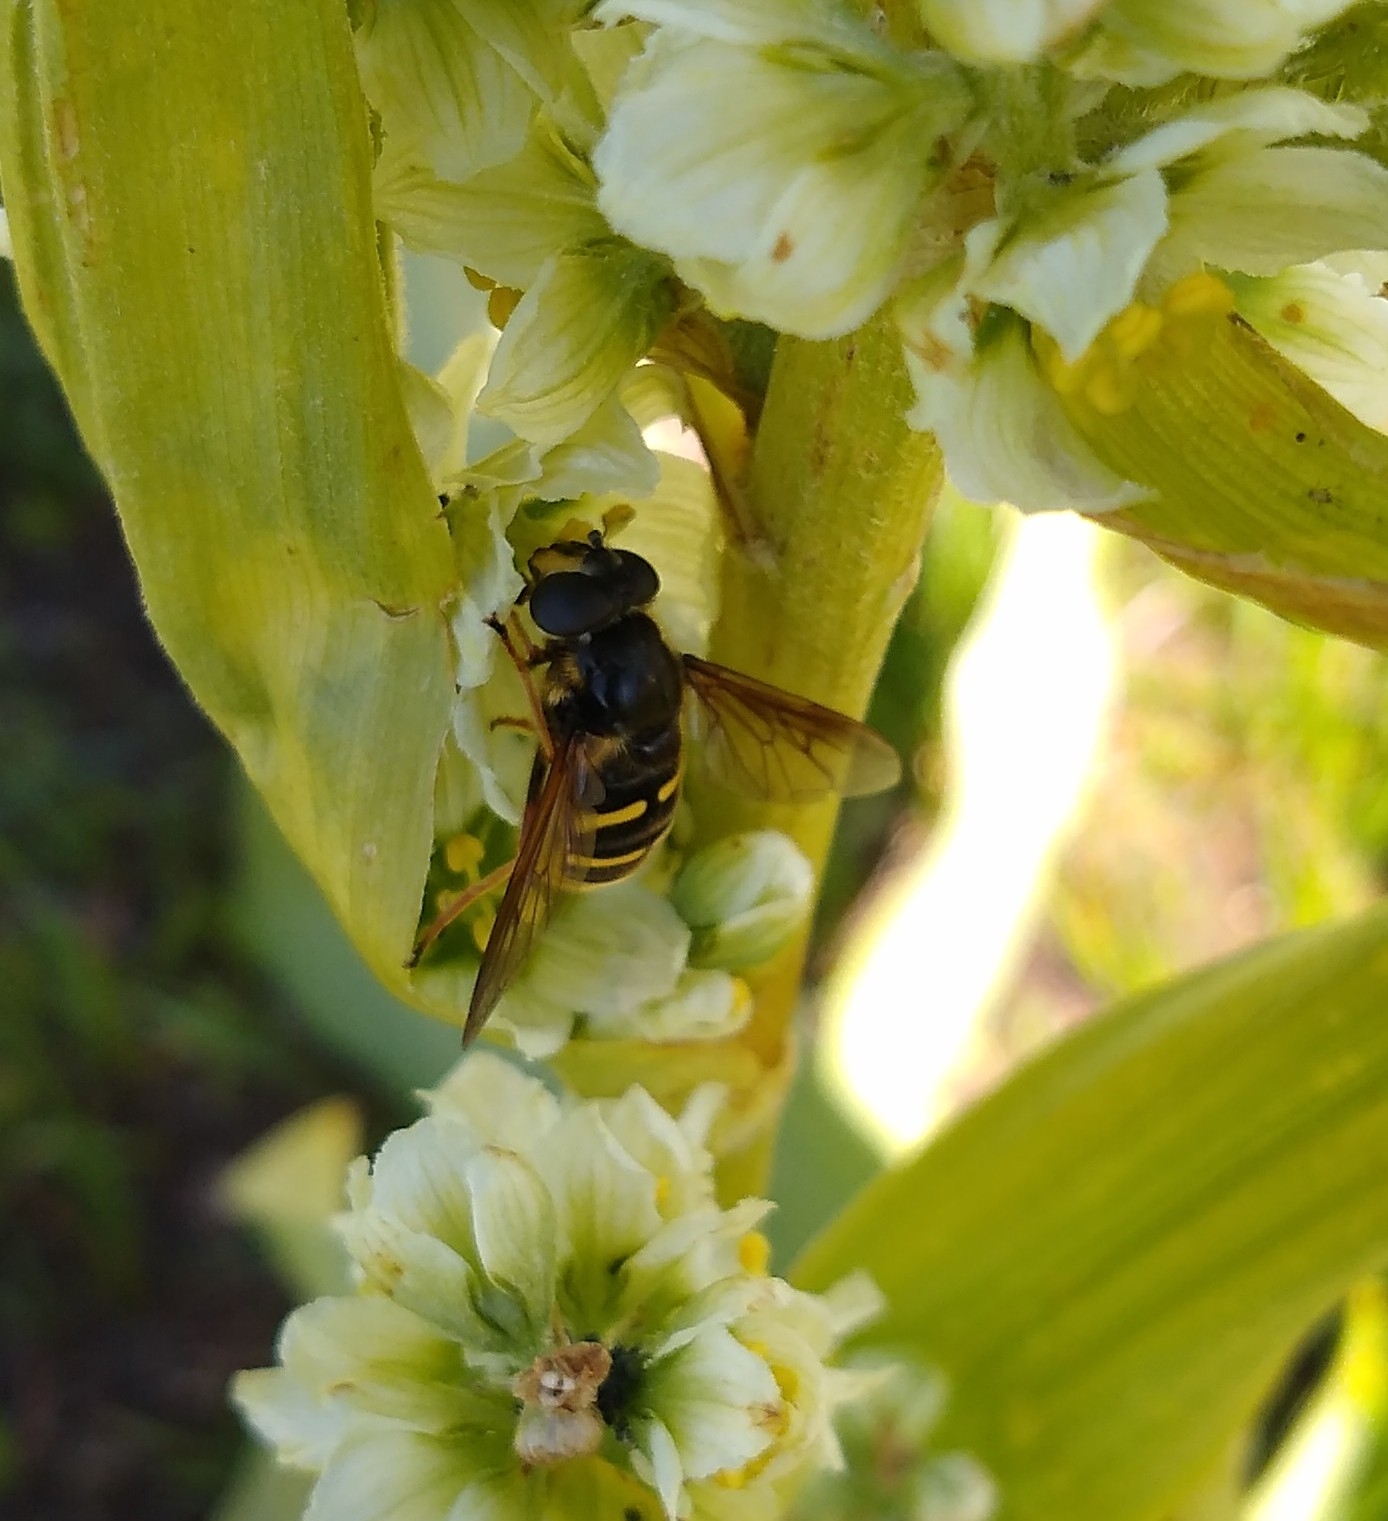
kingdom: Animalia
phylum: Arthropoda
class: Insecta
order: Diptera
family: Syrphidae
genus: Sericomyia
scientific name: Sericomyia chalcopyga
